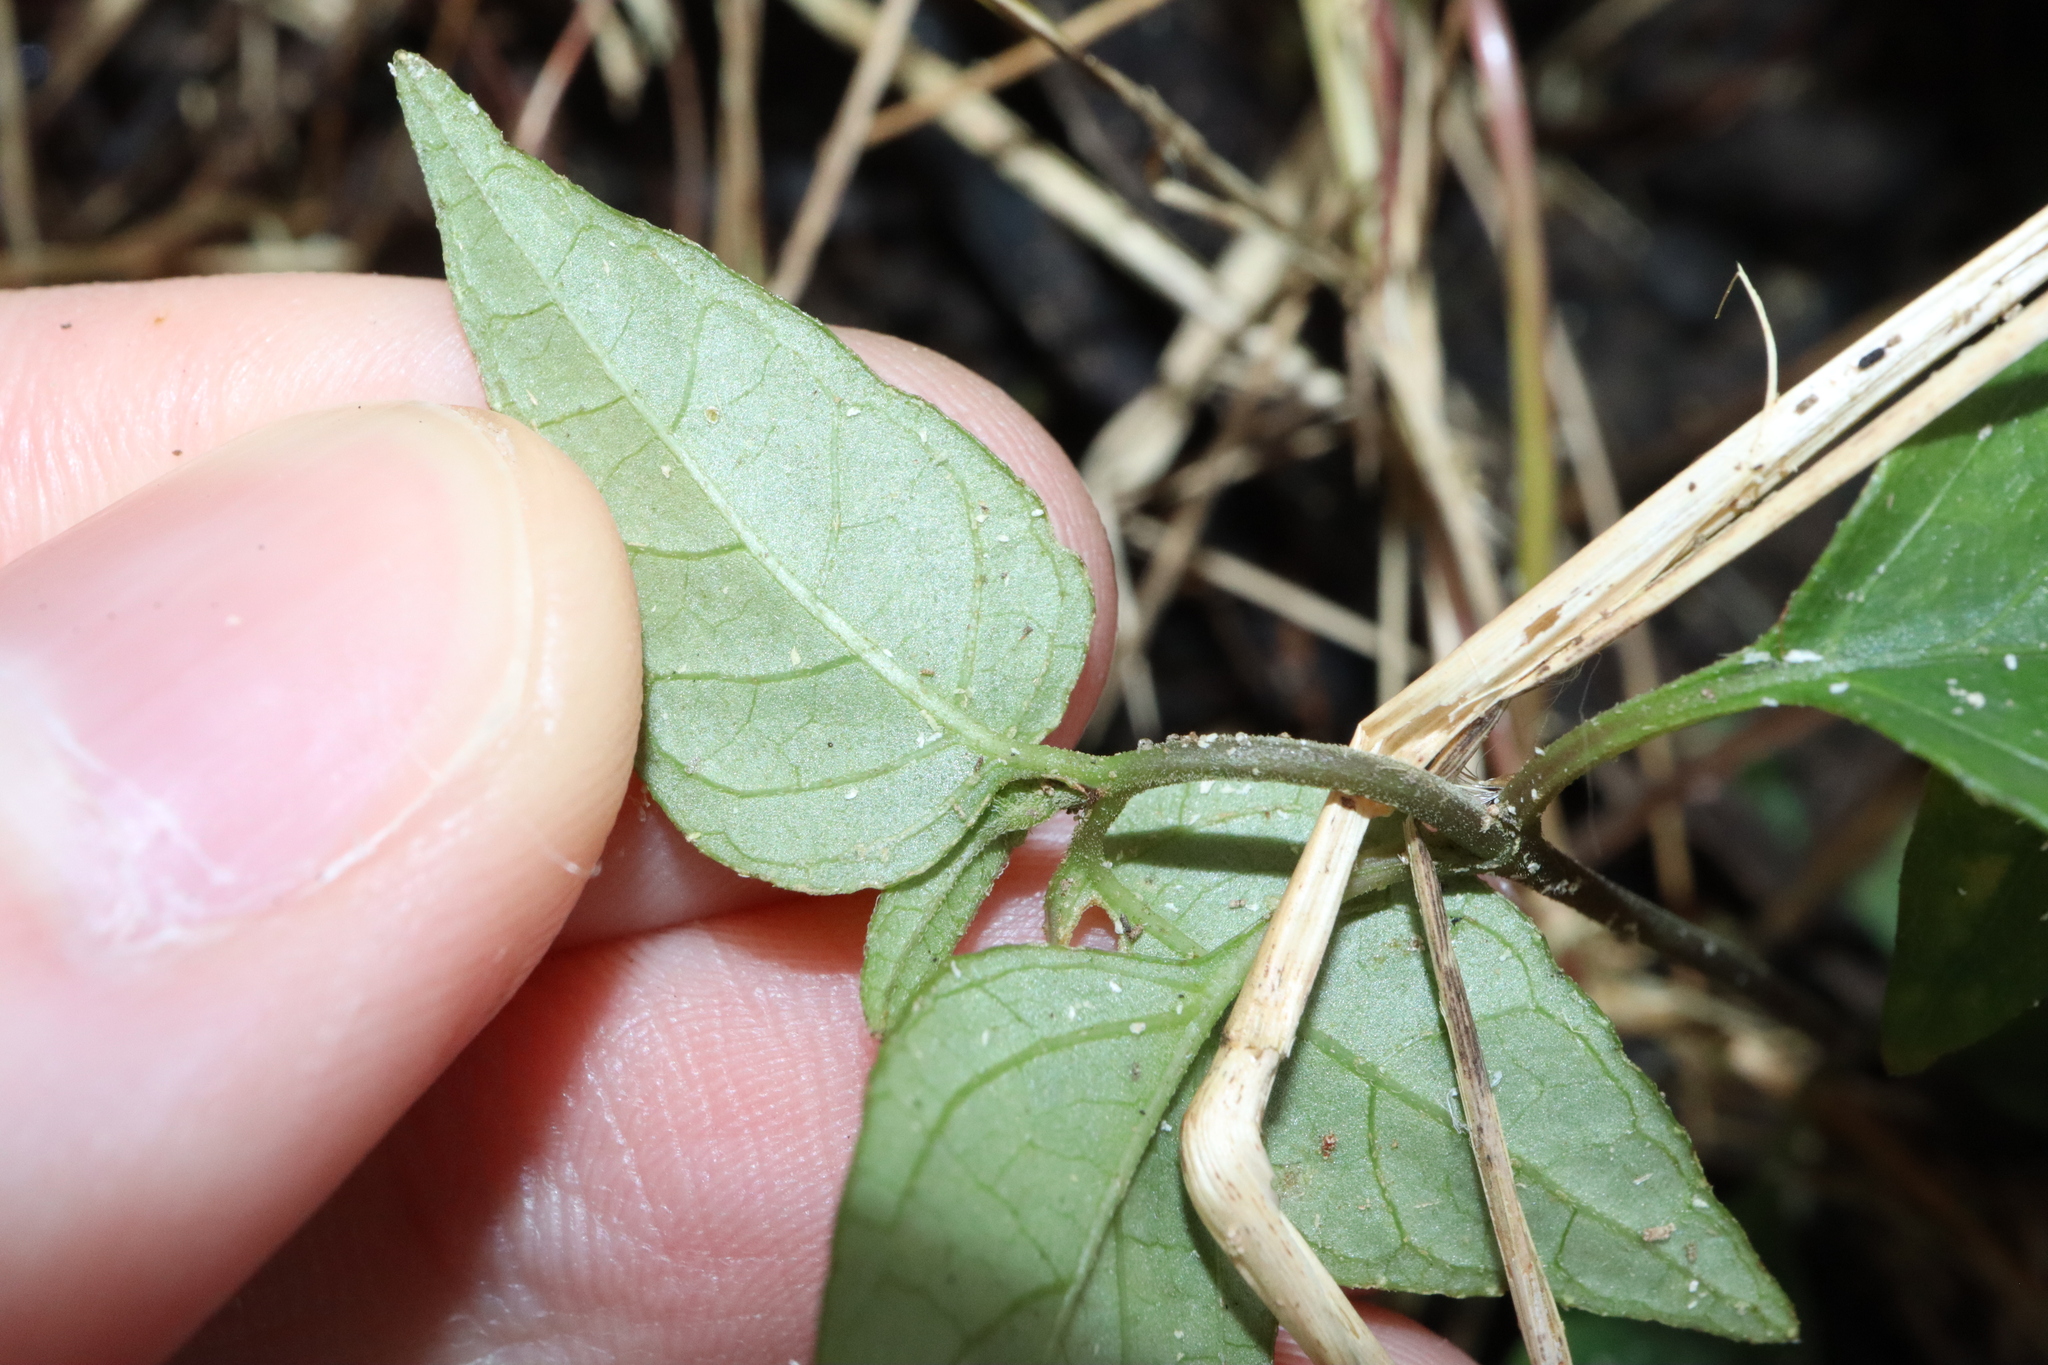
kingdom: Plantae
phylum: Tracheophyta
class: Magnoliopsida
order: Lamiales
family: Acanthaceae
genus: Pseuderanthemum
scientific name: Pseuderanthemum variabile
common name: Night and afternoon
